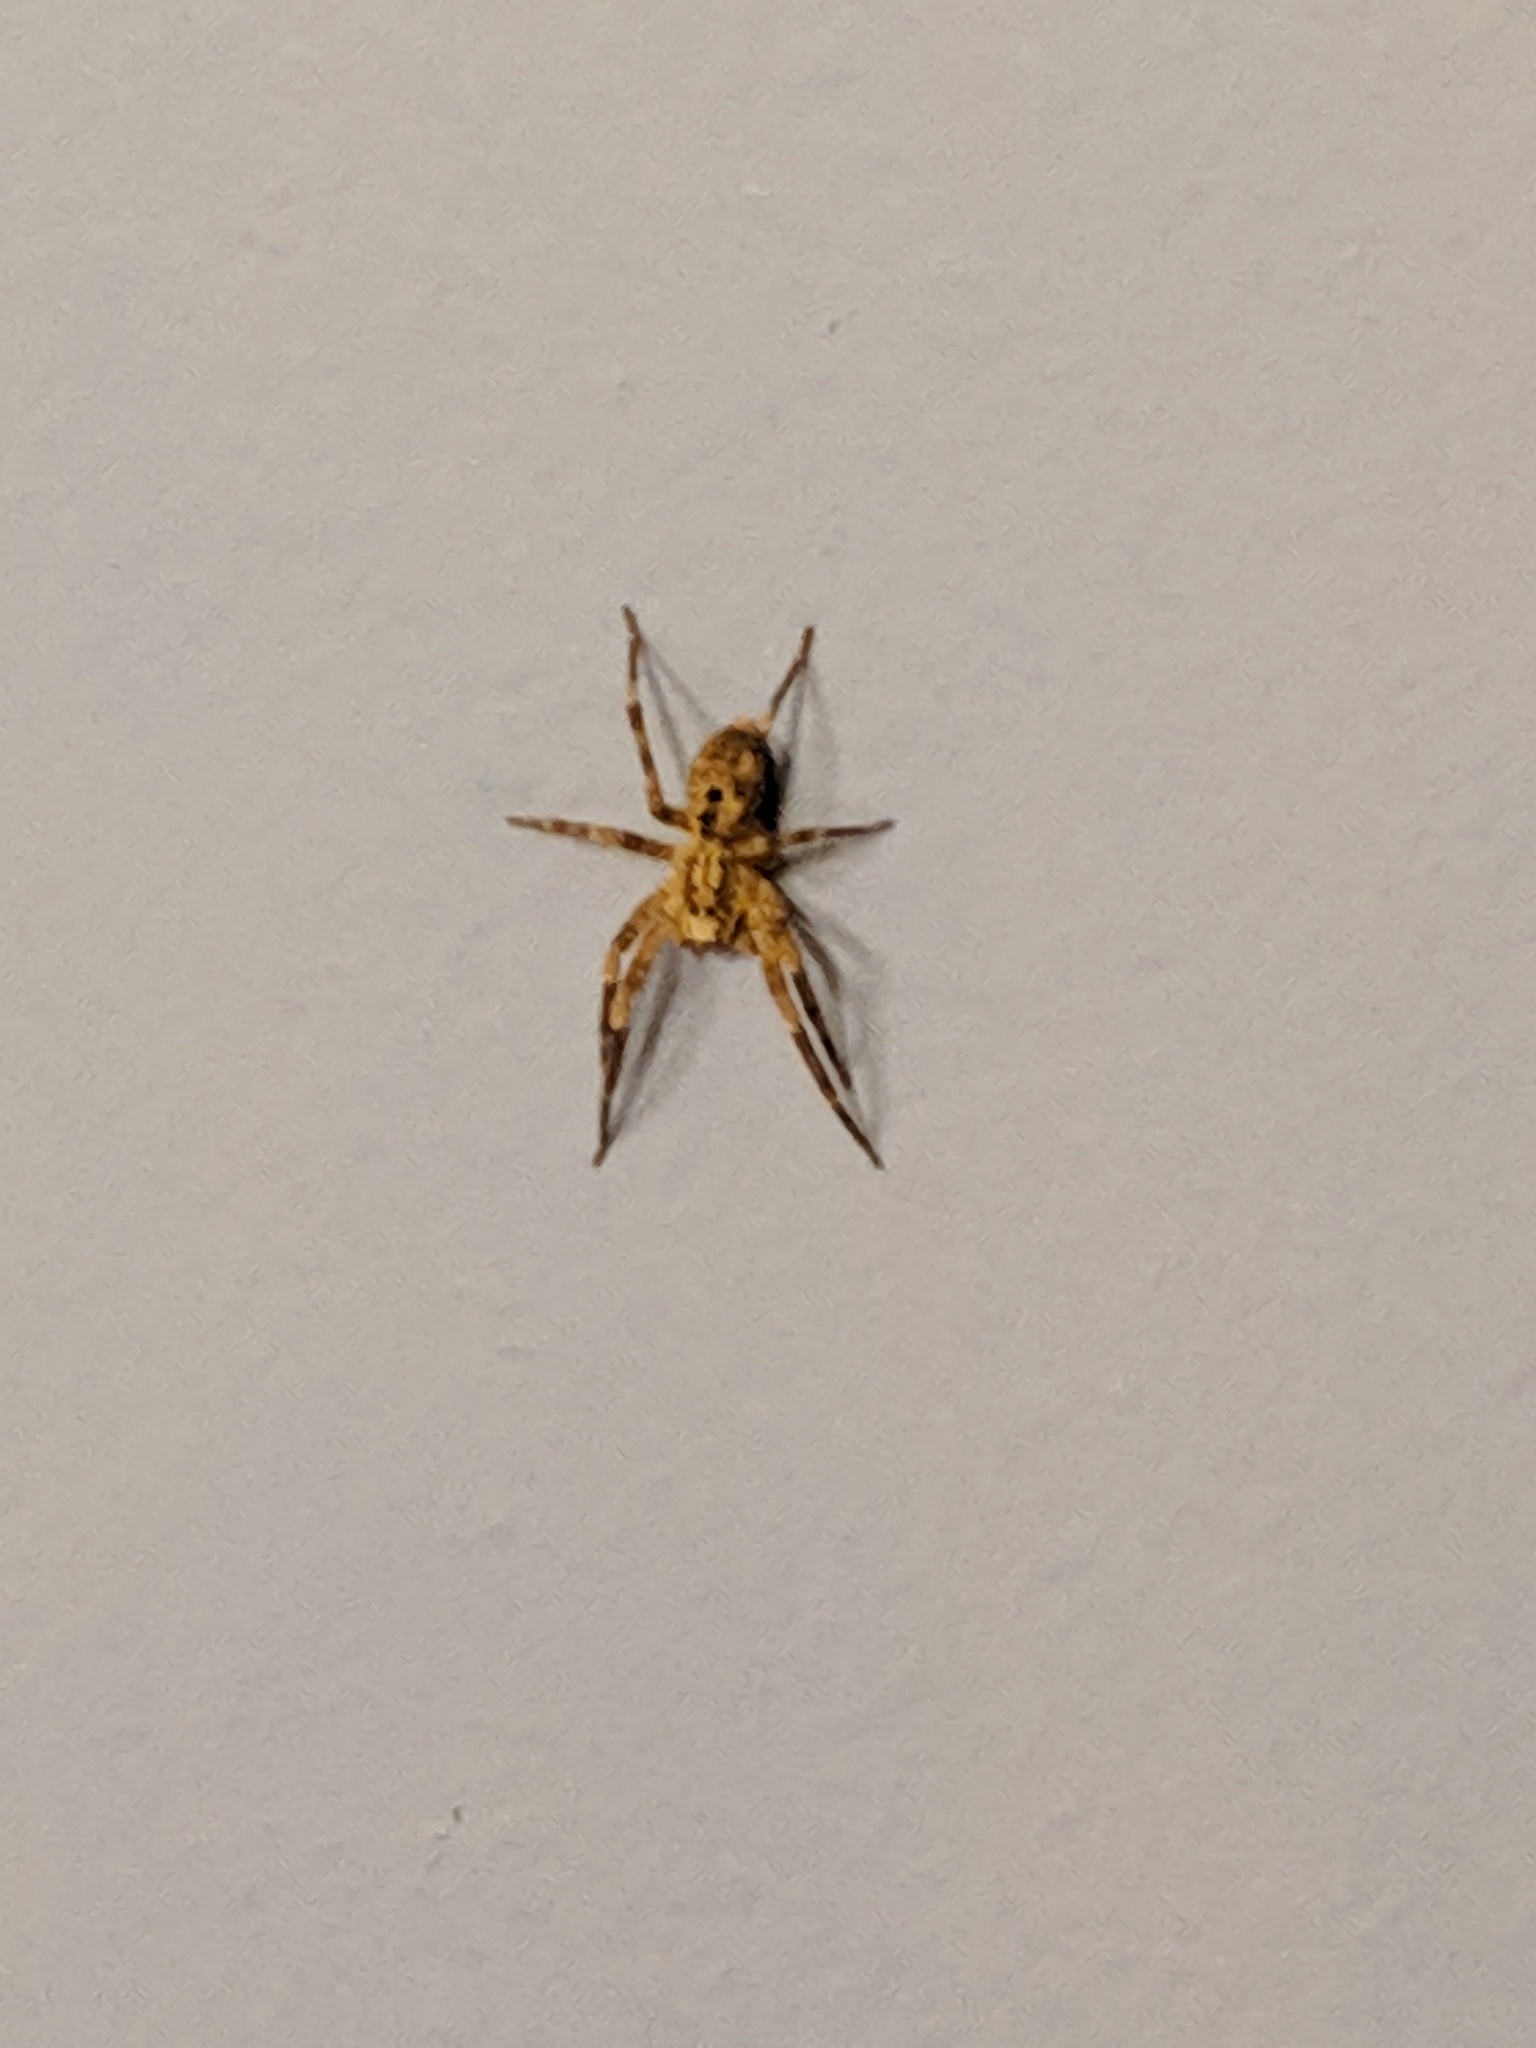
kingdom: Animalia
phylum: Arthropoda
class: Arachnida
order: Araneae
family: Zoropsidae
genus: Zoropsis
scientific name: Zoropsis spinimana
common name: Zoropsid spider
